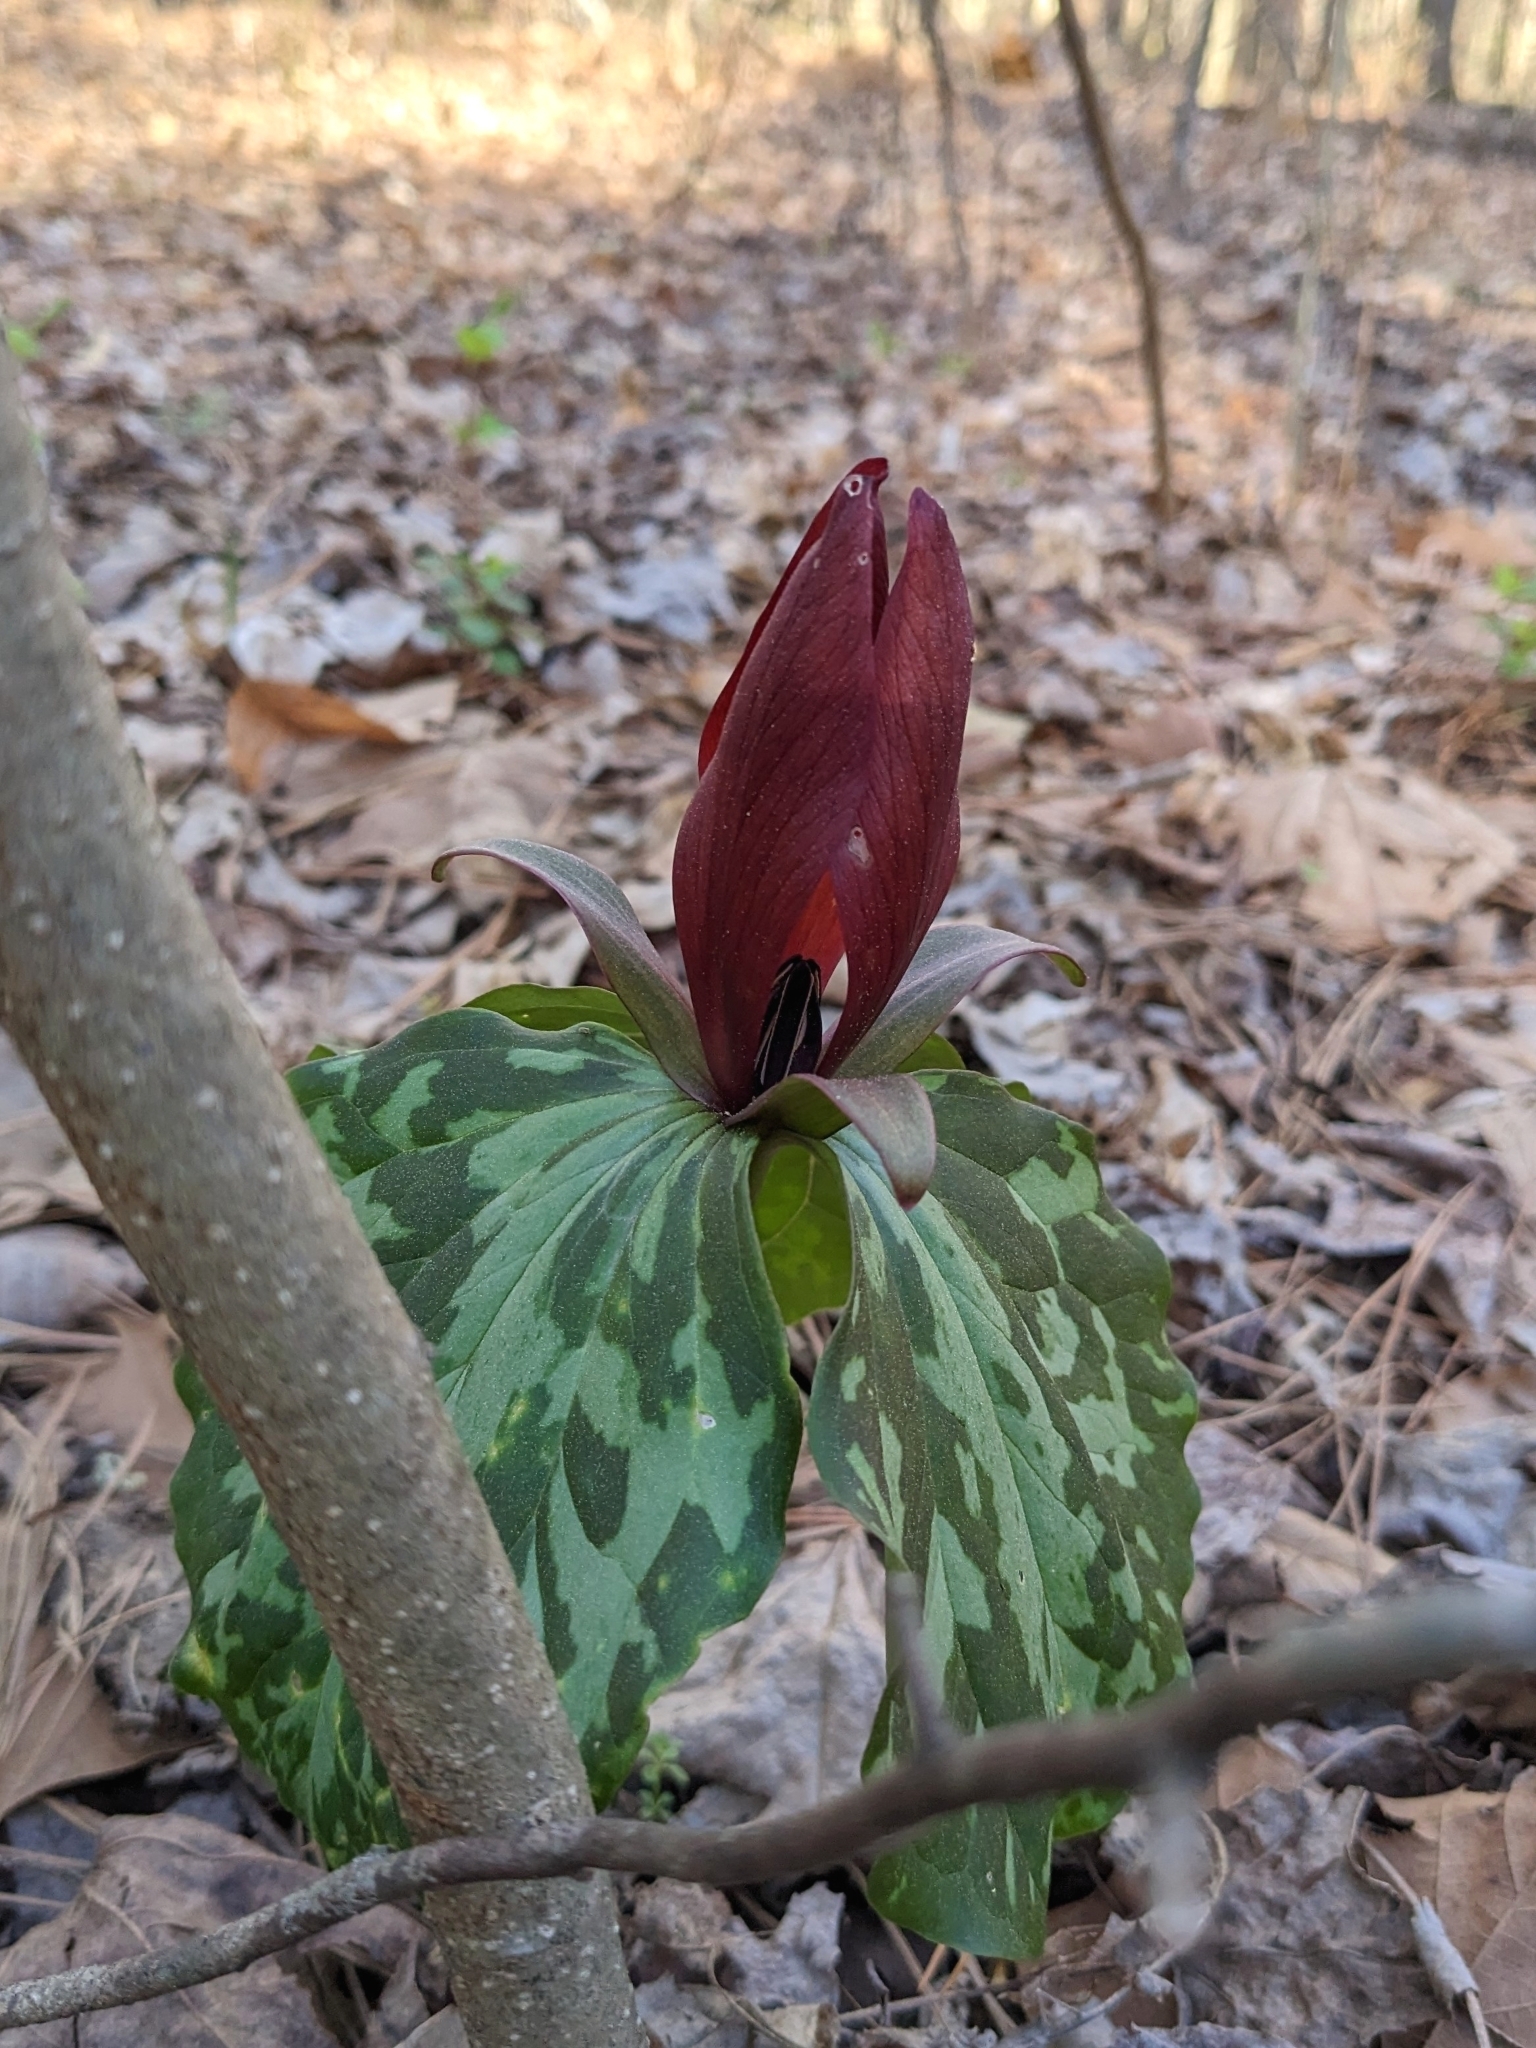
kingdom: Plantae
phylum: Tracheophyta
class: Liliopsida
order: Liliales
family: Melanthiaceae
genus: Trillium
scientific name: Trillium cuneatum
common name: Cuneate trillium
